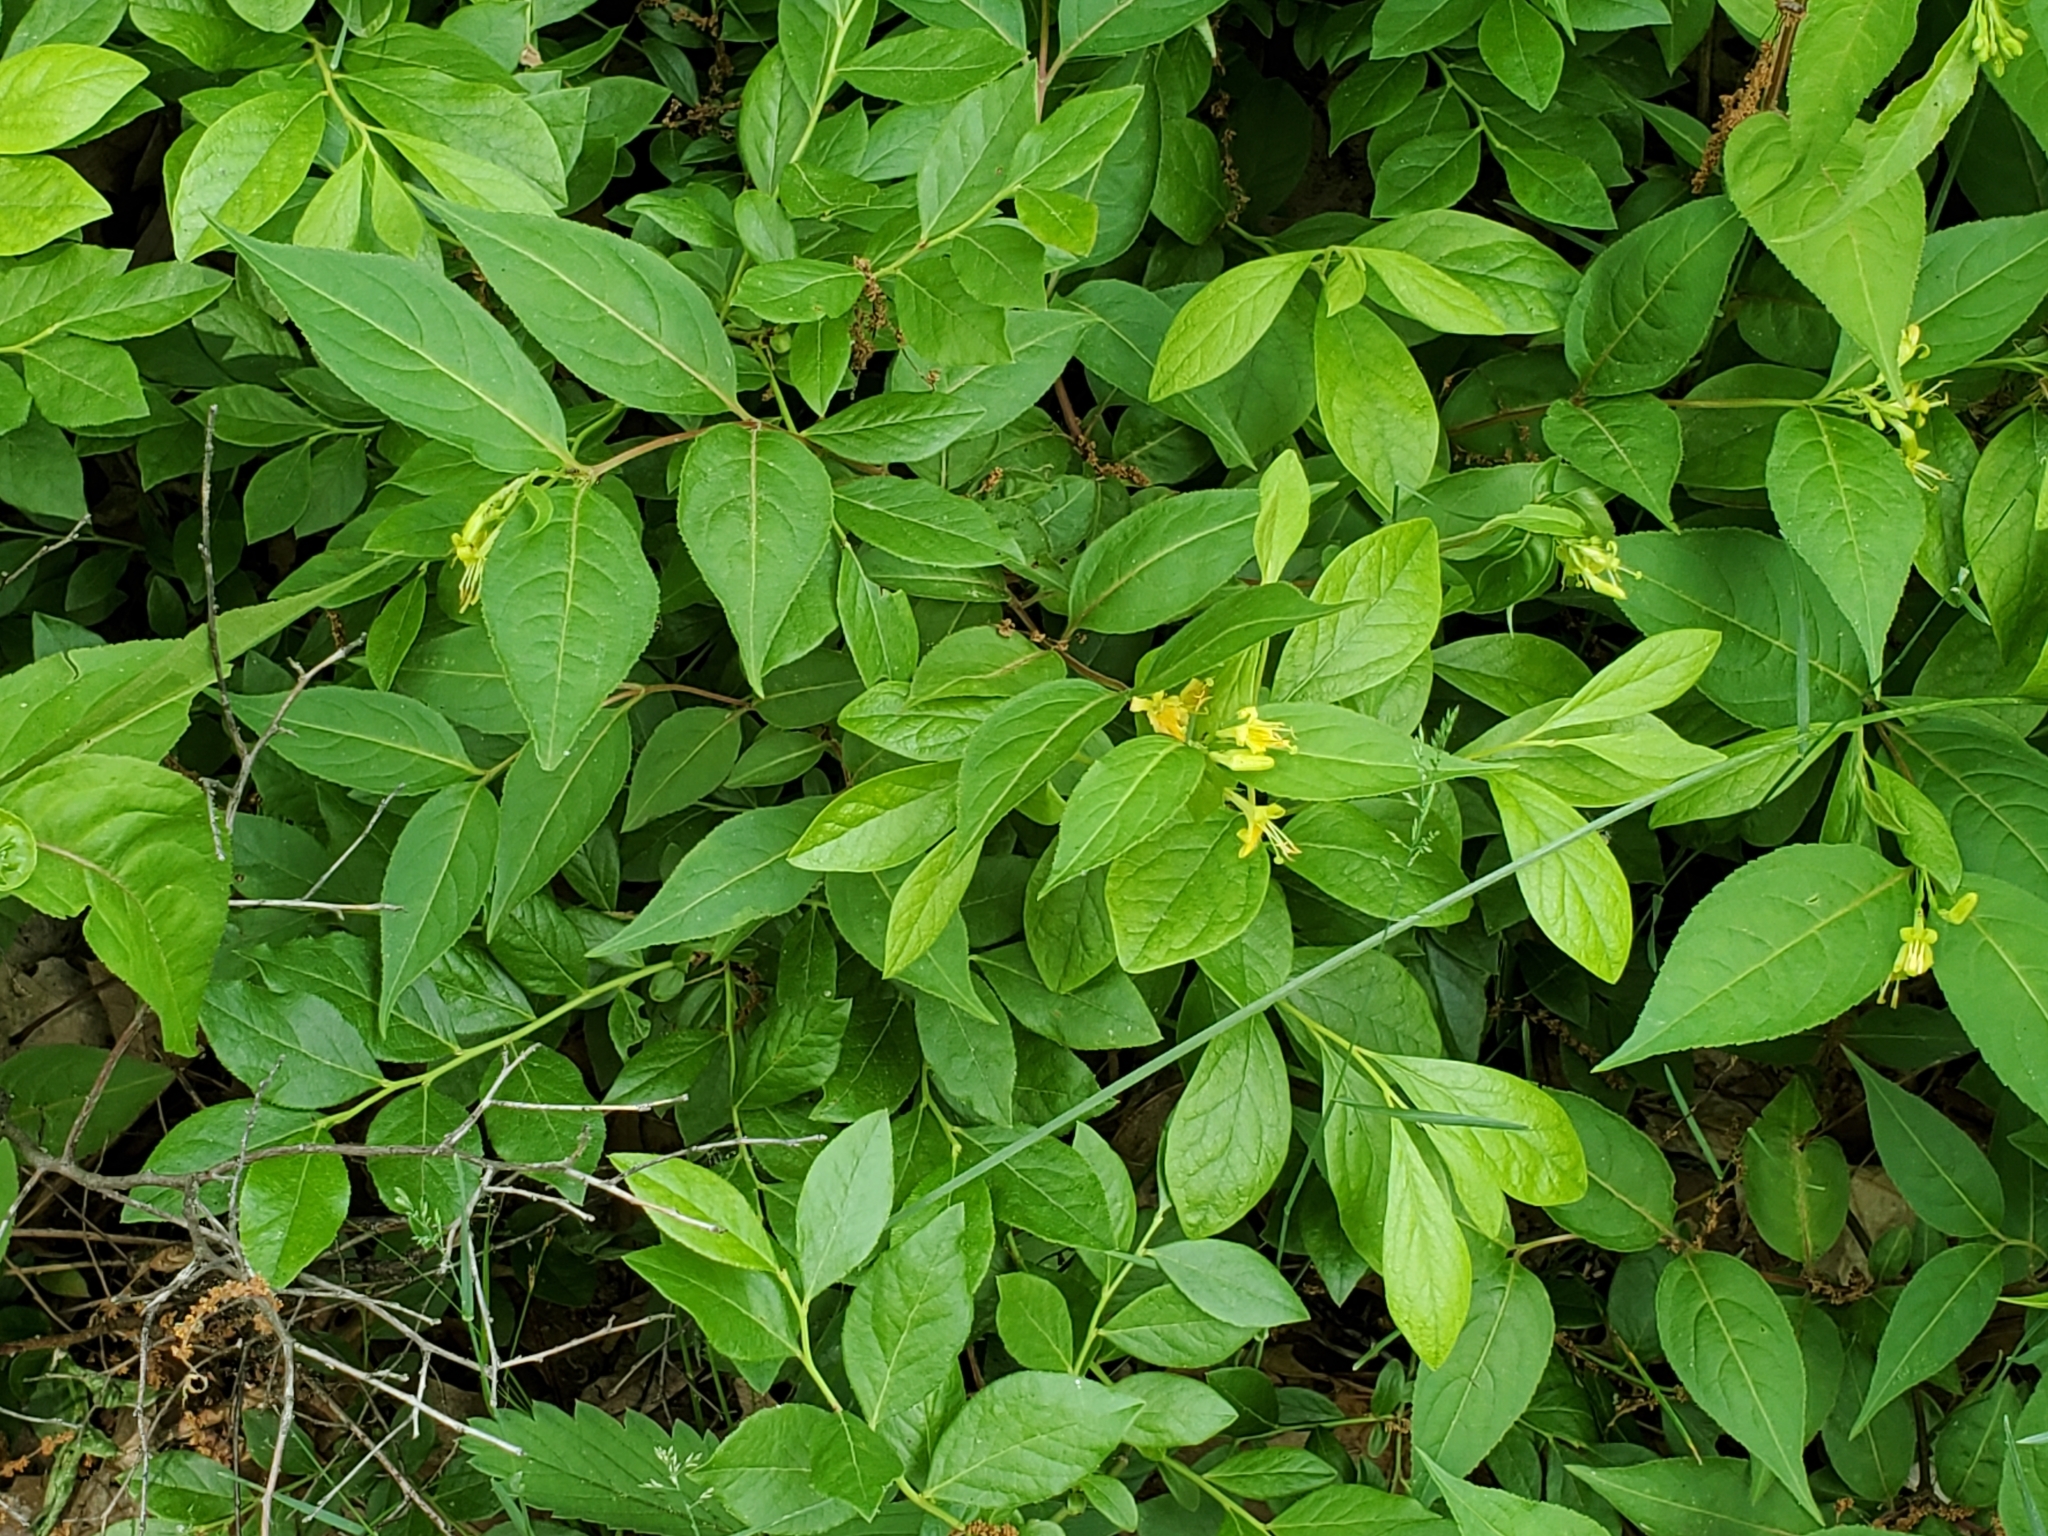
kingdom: Plantae
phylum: Tracheophyta
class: Magnoliopsida
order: Dipsacales
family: Caprifoliaceae
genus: Diervilla
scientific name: Diervilla lonicera
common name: Bush-honeysuckle
